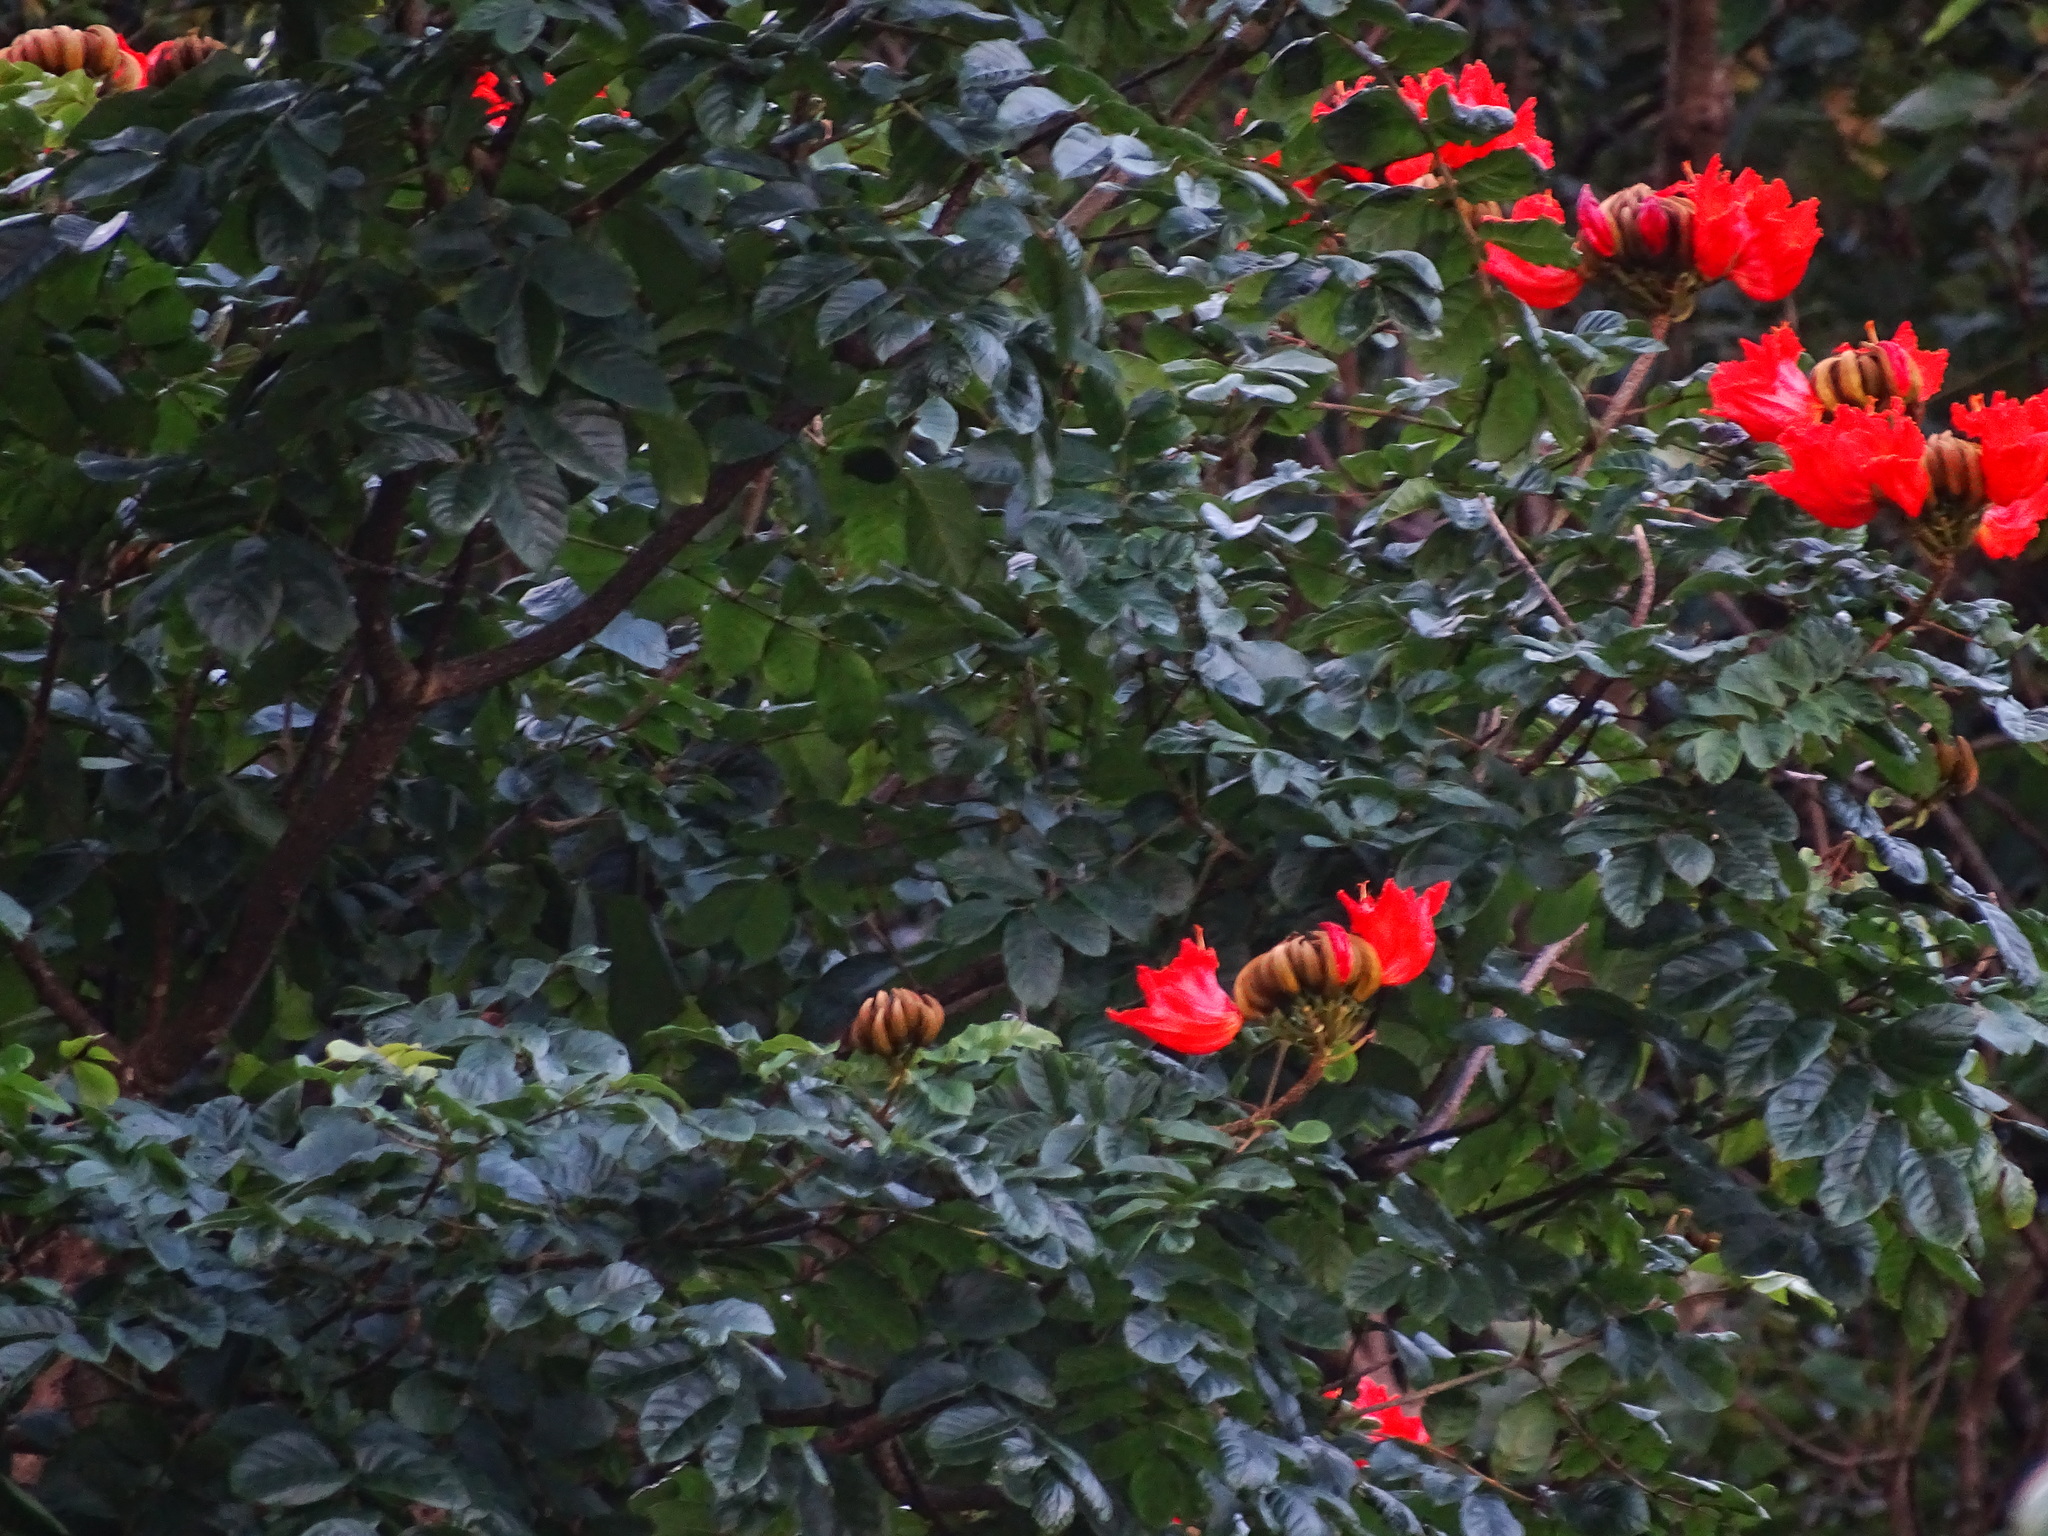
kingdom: Plantae
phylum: Tracheophyta
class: Magnoliopsida
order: Lamiales
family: Bignoniaceae
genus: Spathodea
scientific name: Spathodea campanulata
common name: African tuliptree
